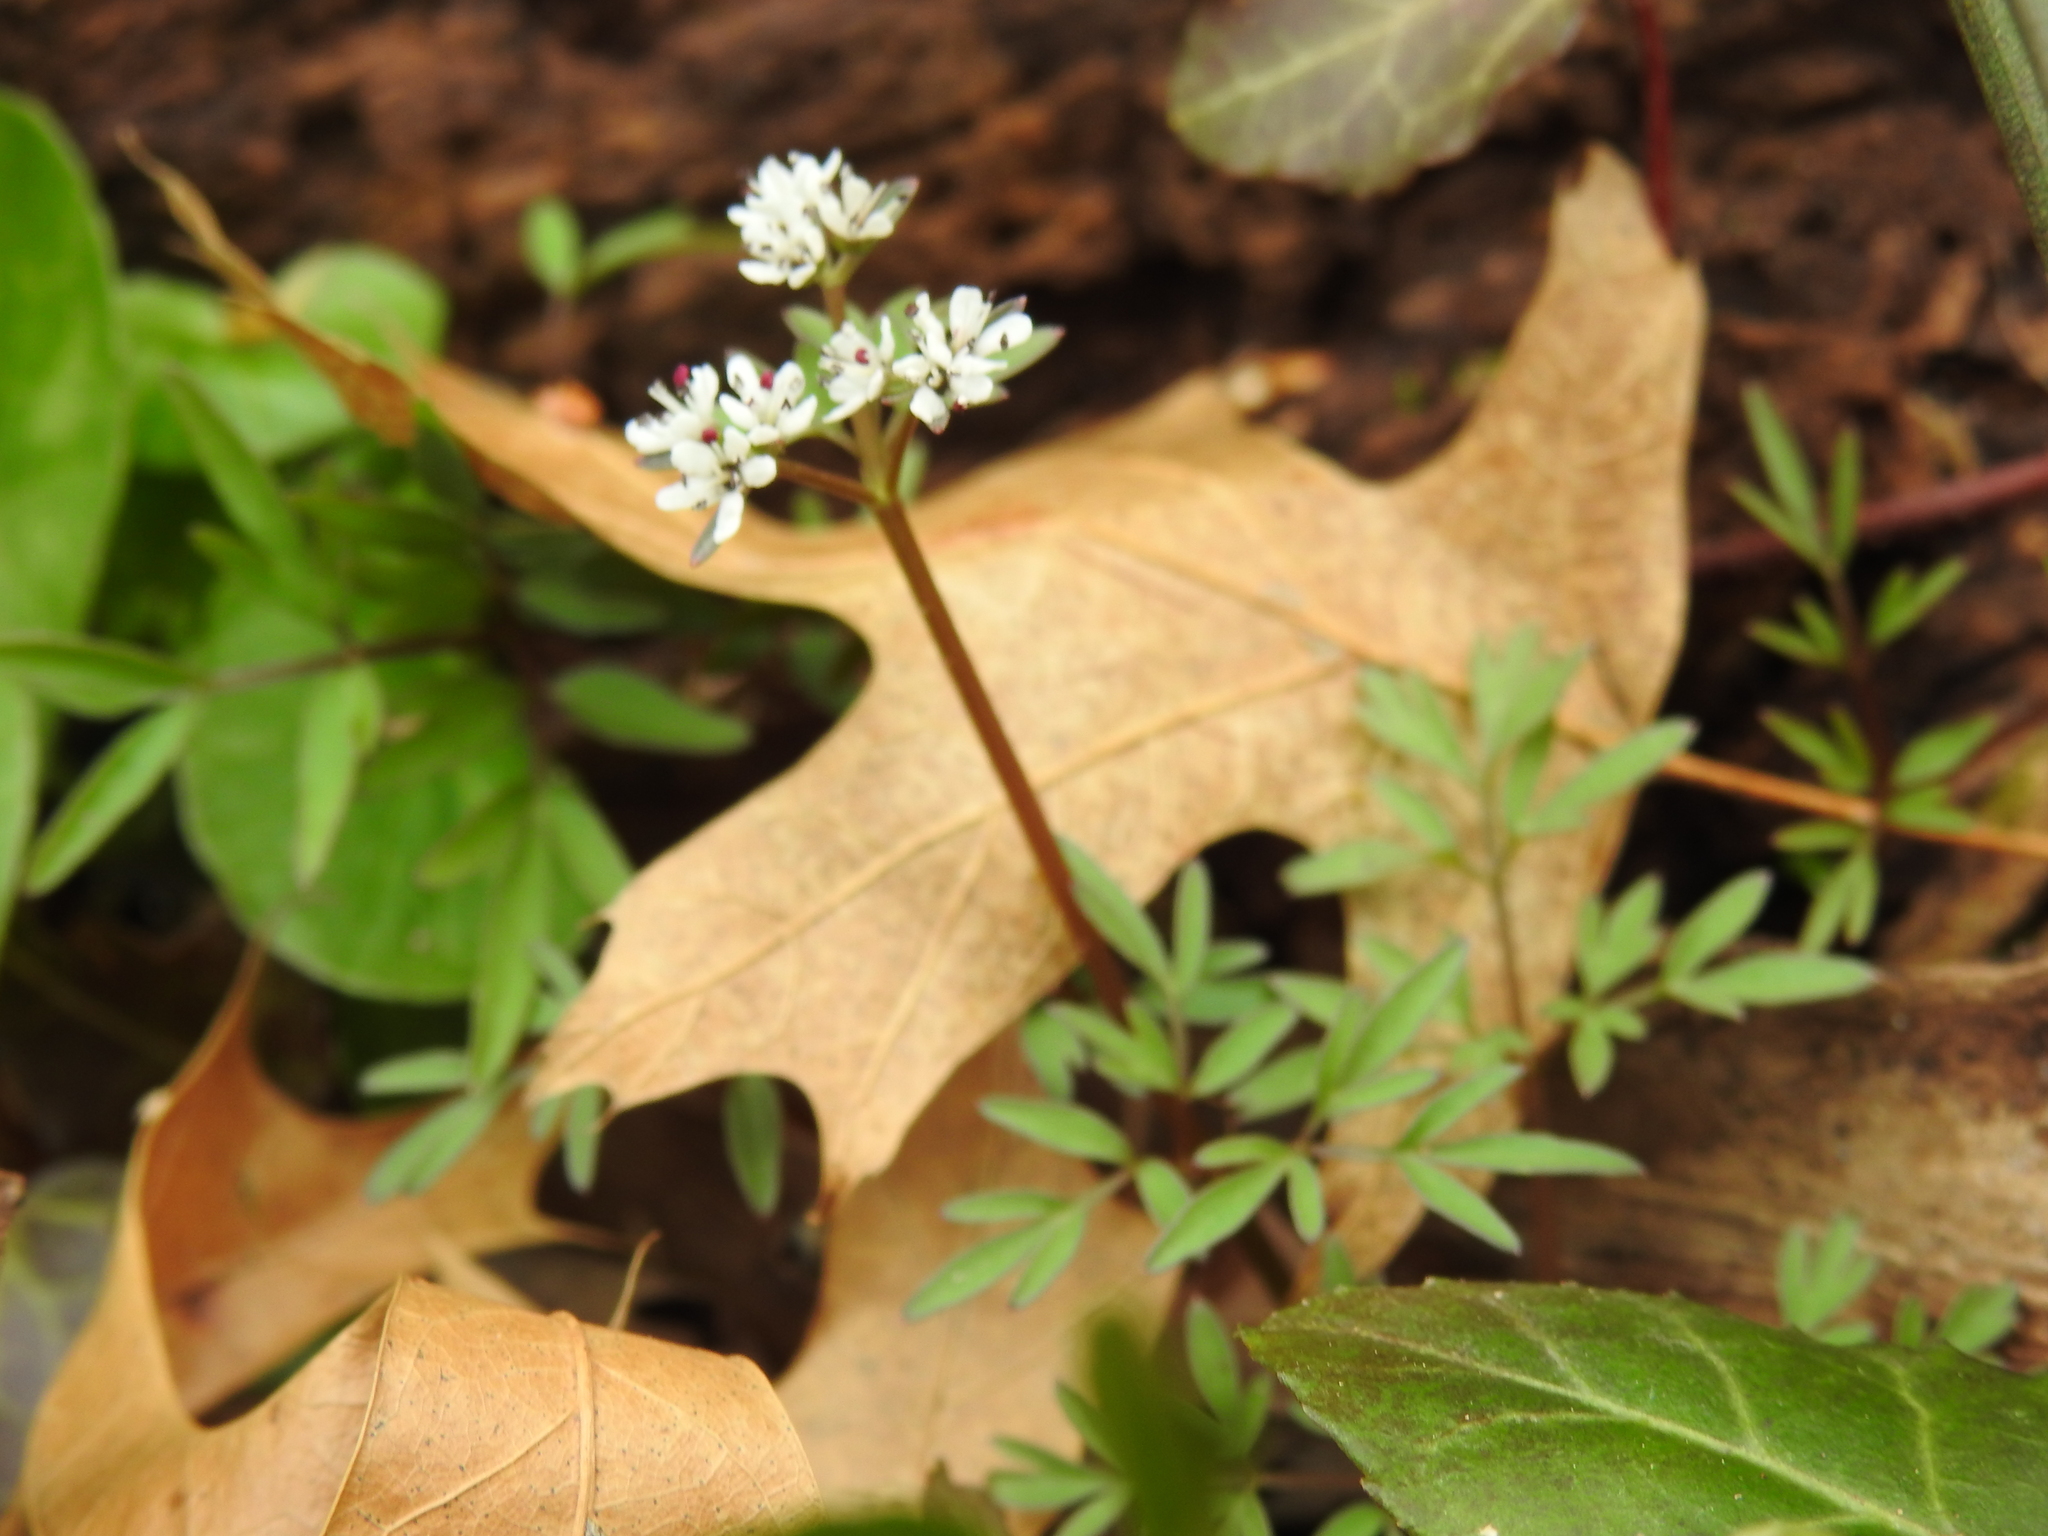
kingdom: Plantae
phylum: Tracheophyta
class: Magnoliopsida
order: Apiales
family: Apiaceae
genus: Erigenia
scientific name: Erigenia bulbosa
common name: Pepper-and-salt
